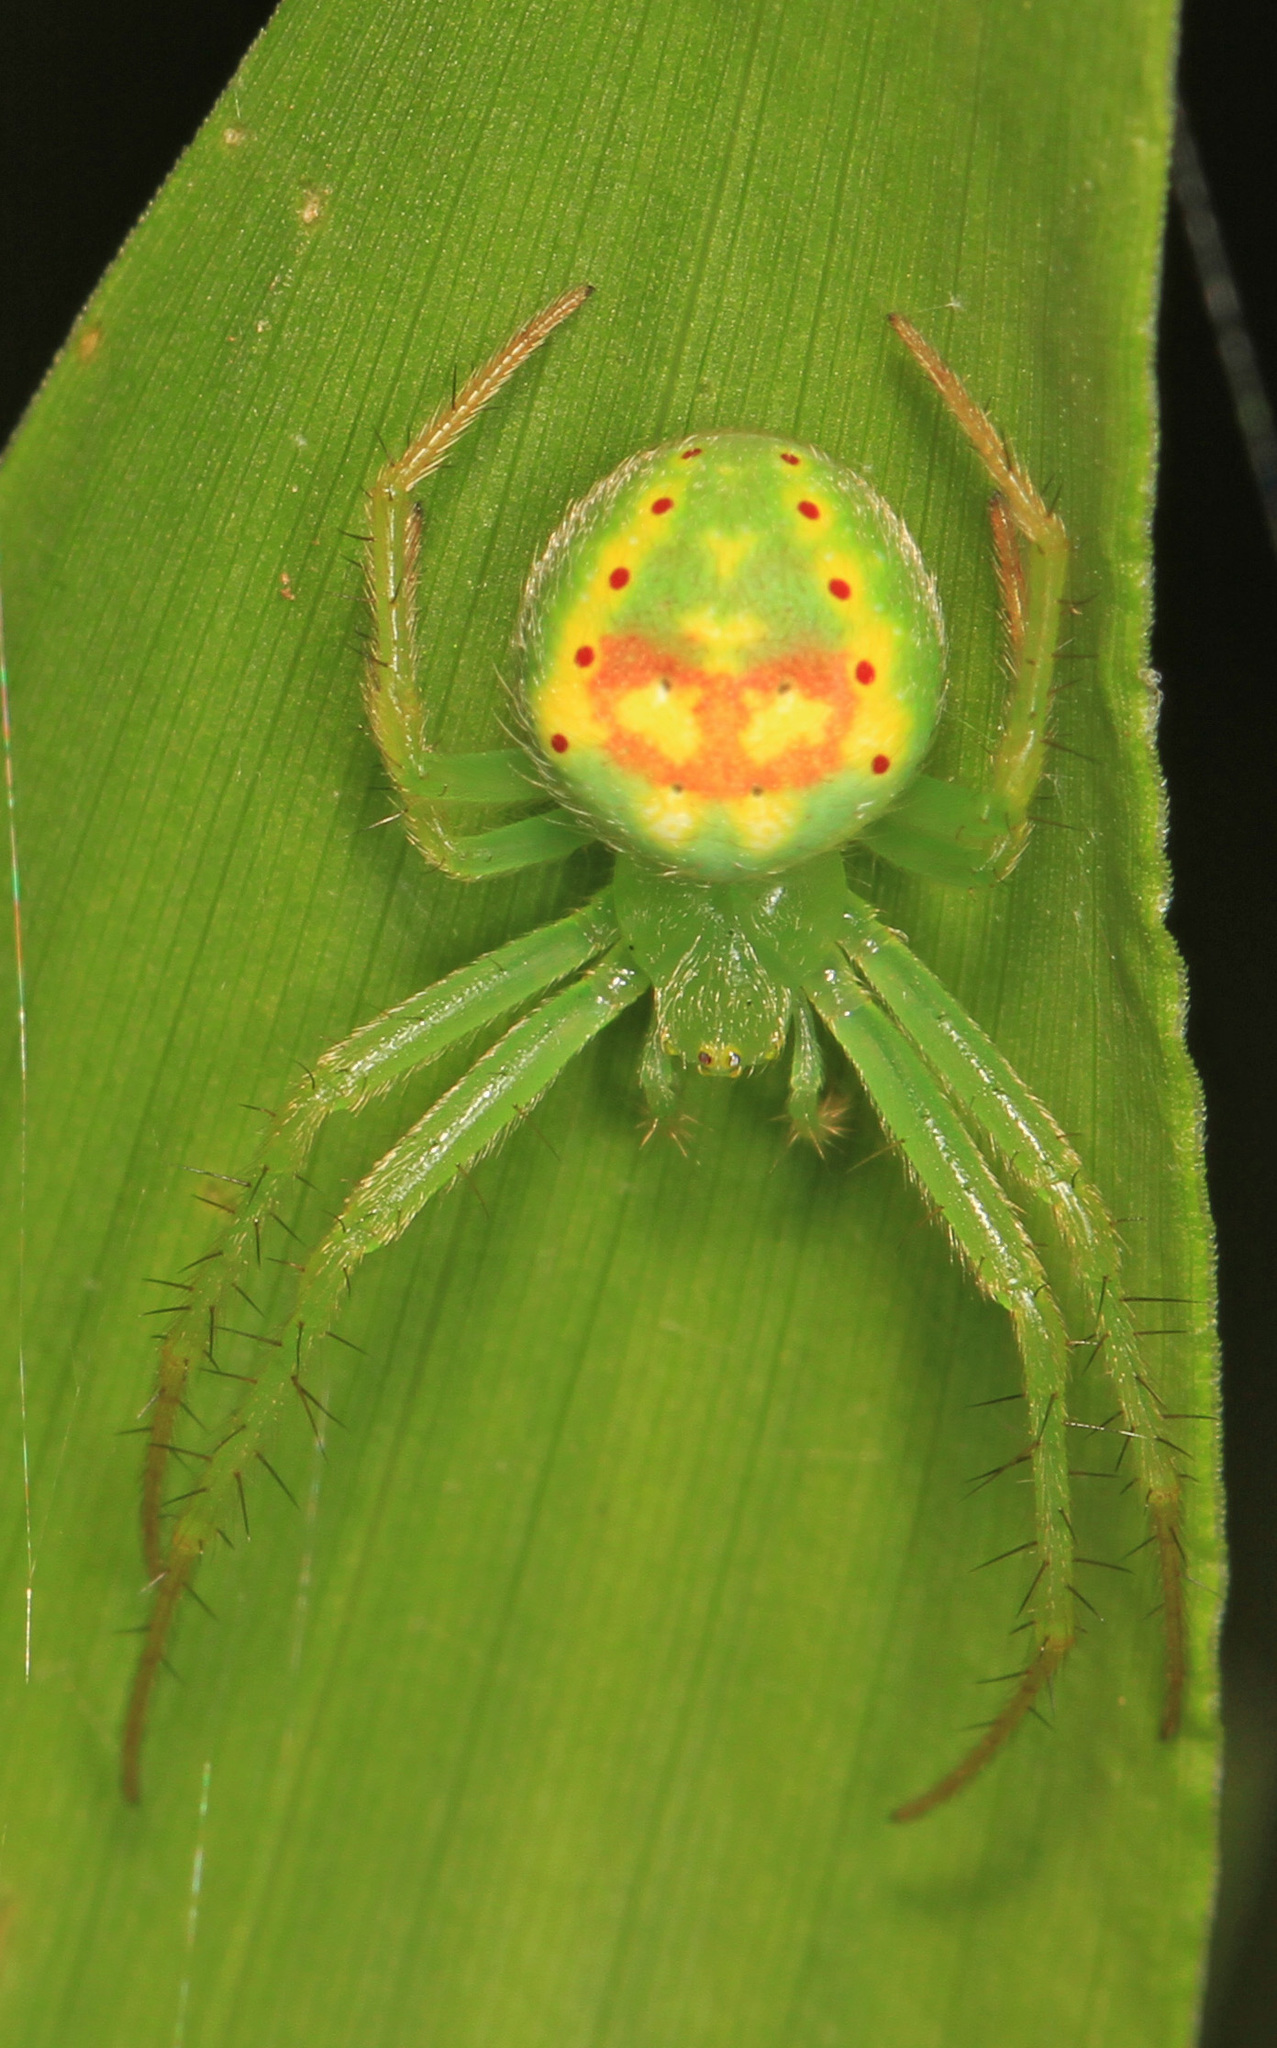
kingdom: Animalia
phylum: Arthropoda
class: Arachnida
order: Araneae
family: Araneidae
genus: Araneus
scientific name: Araneus cingulatus
